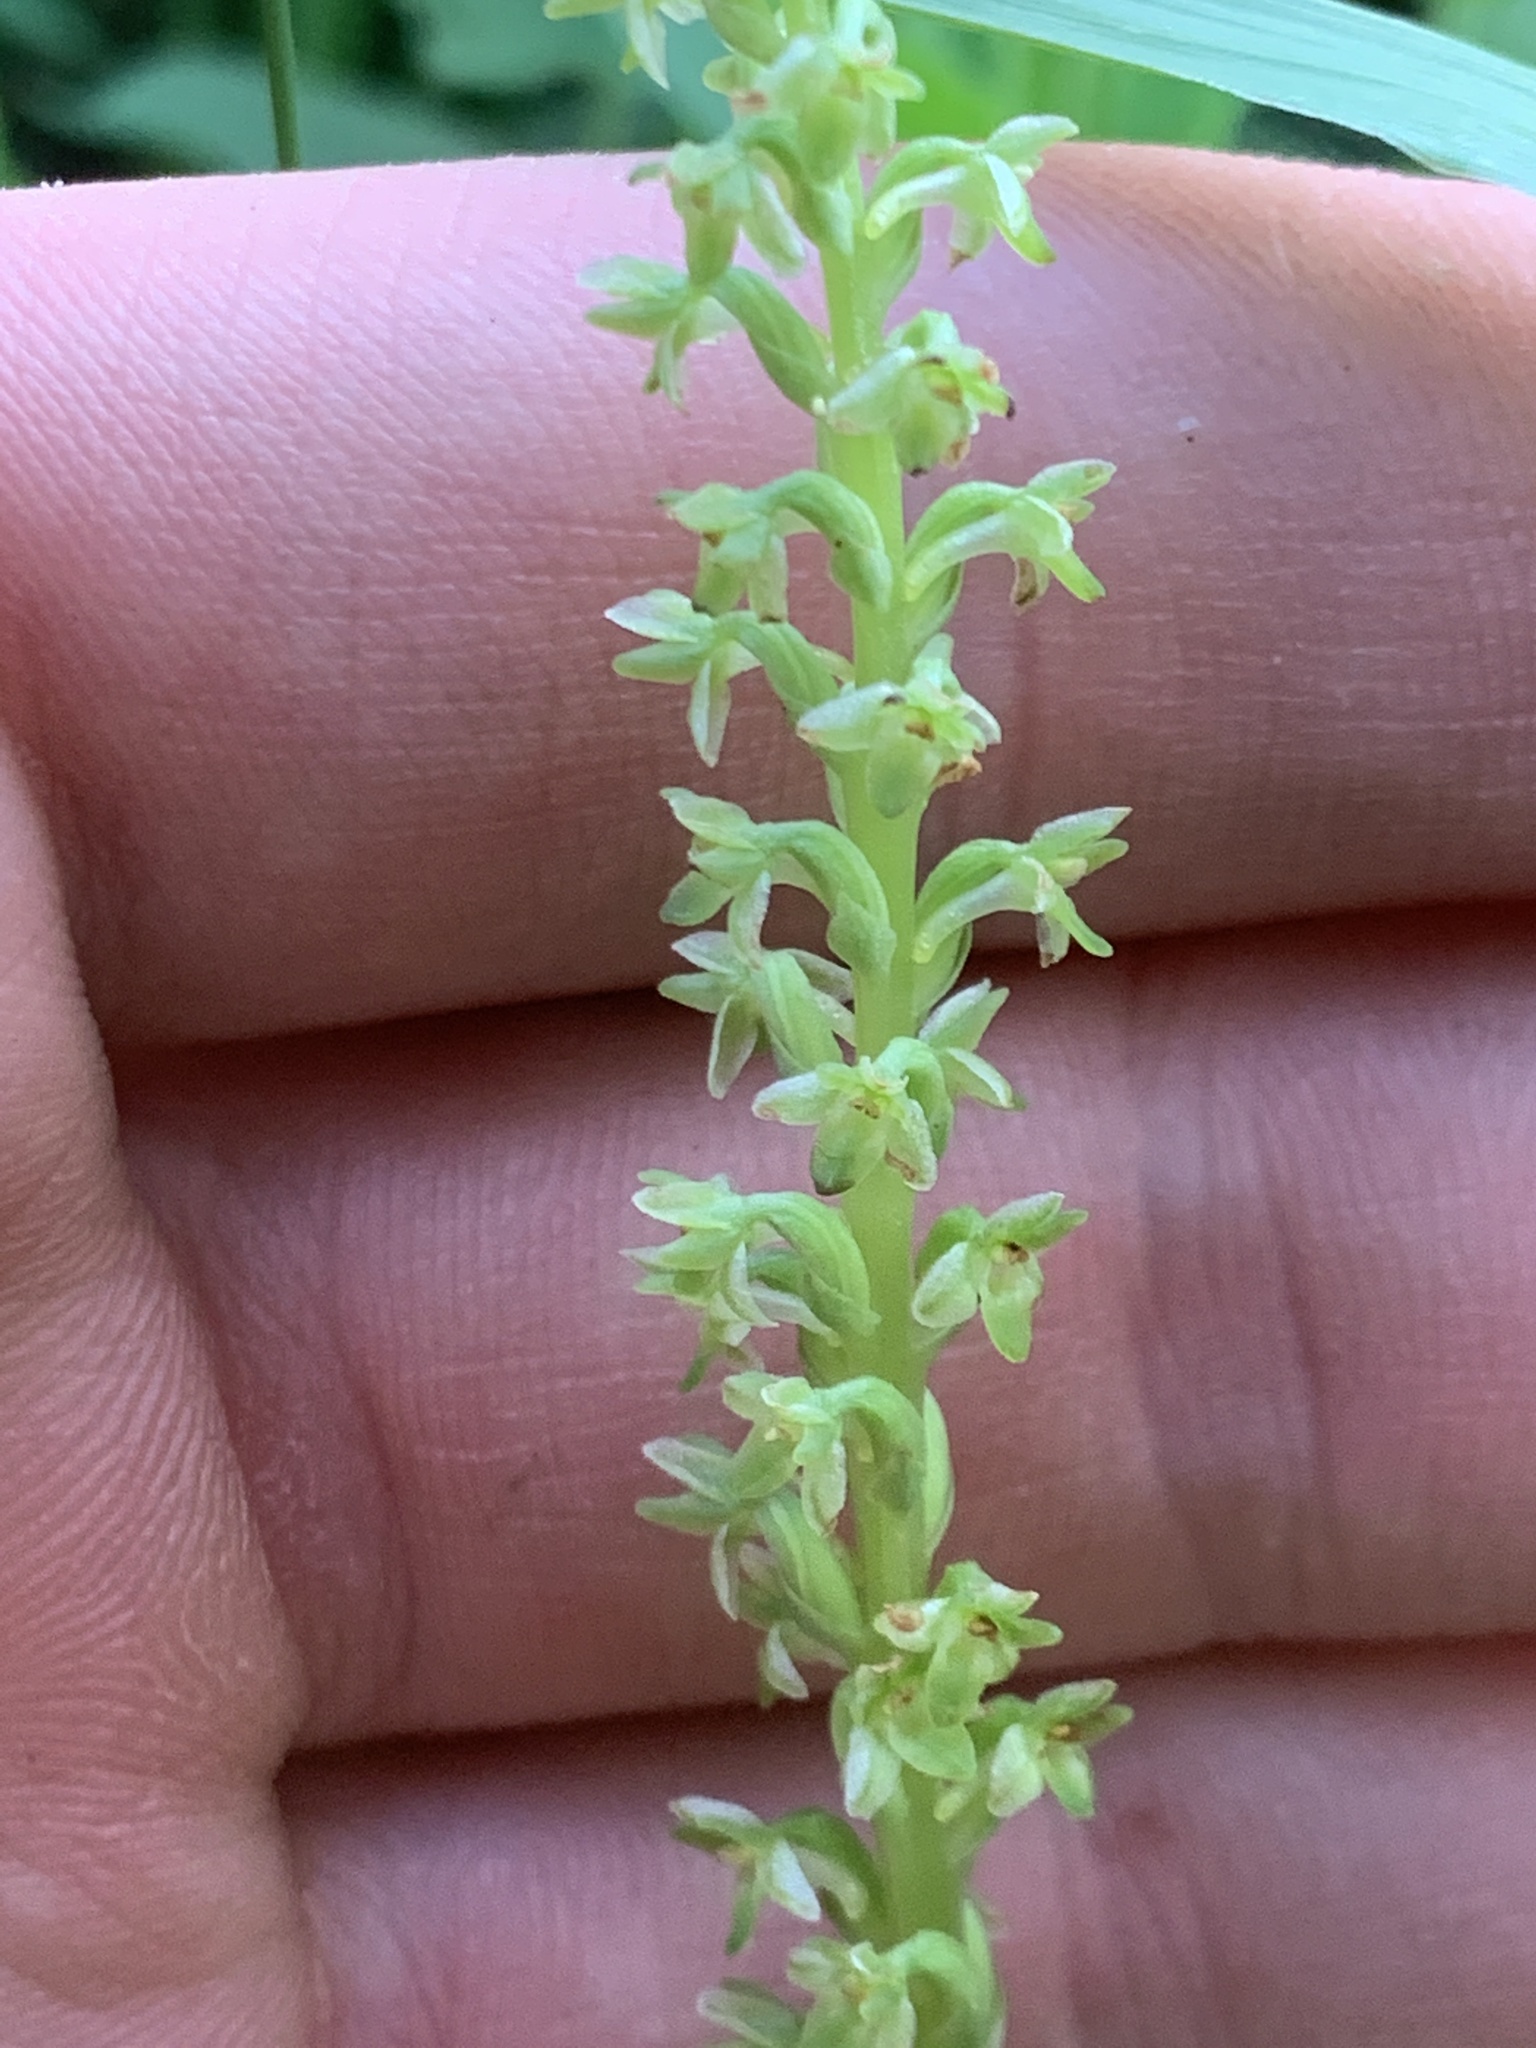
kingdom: Plantae
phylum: Tracheophyta
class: Liliopsida
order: Asparagales
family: Orchidaceae
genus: Platanthera
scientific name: Platanthera unalascensis
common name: Alaska bog orchid
